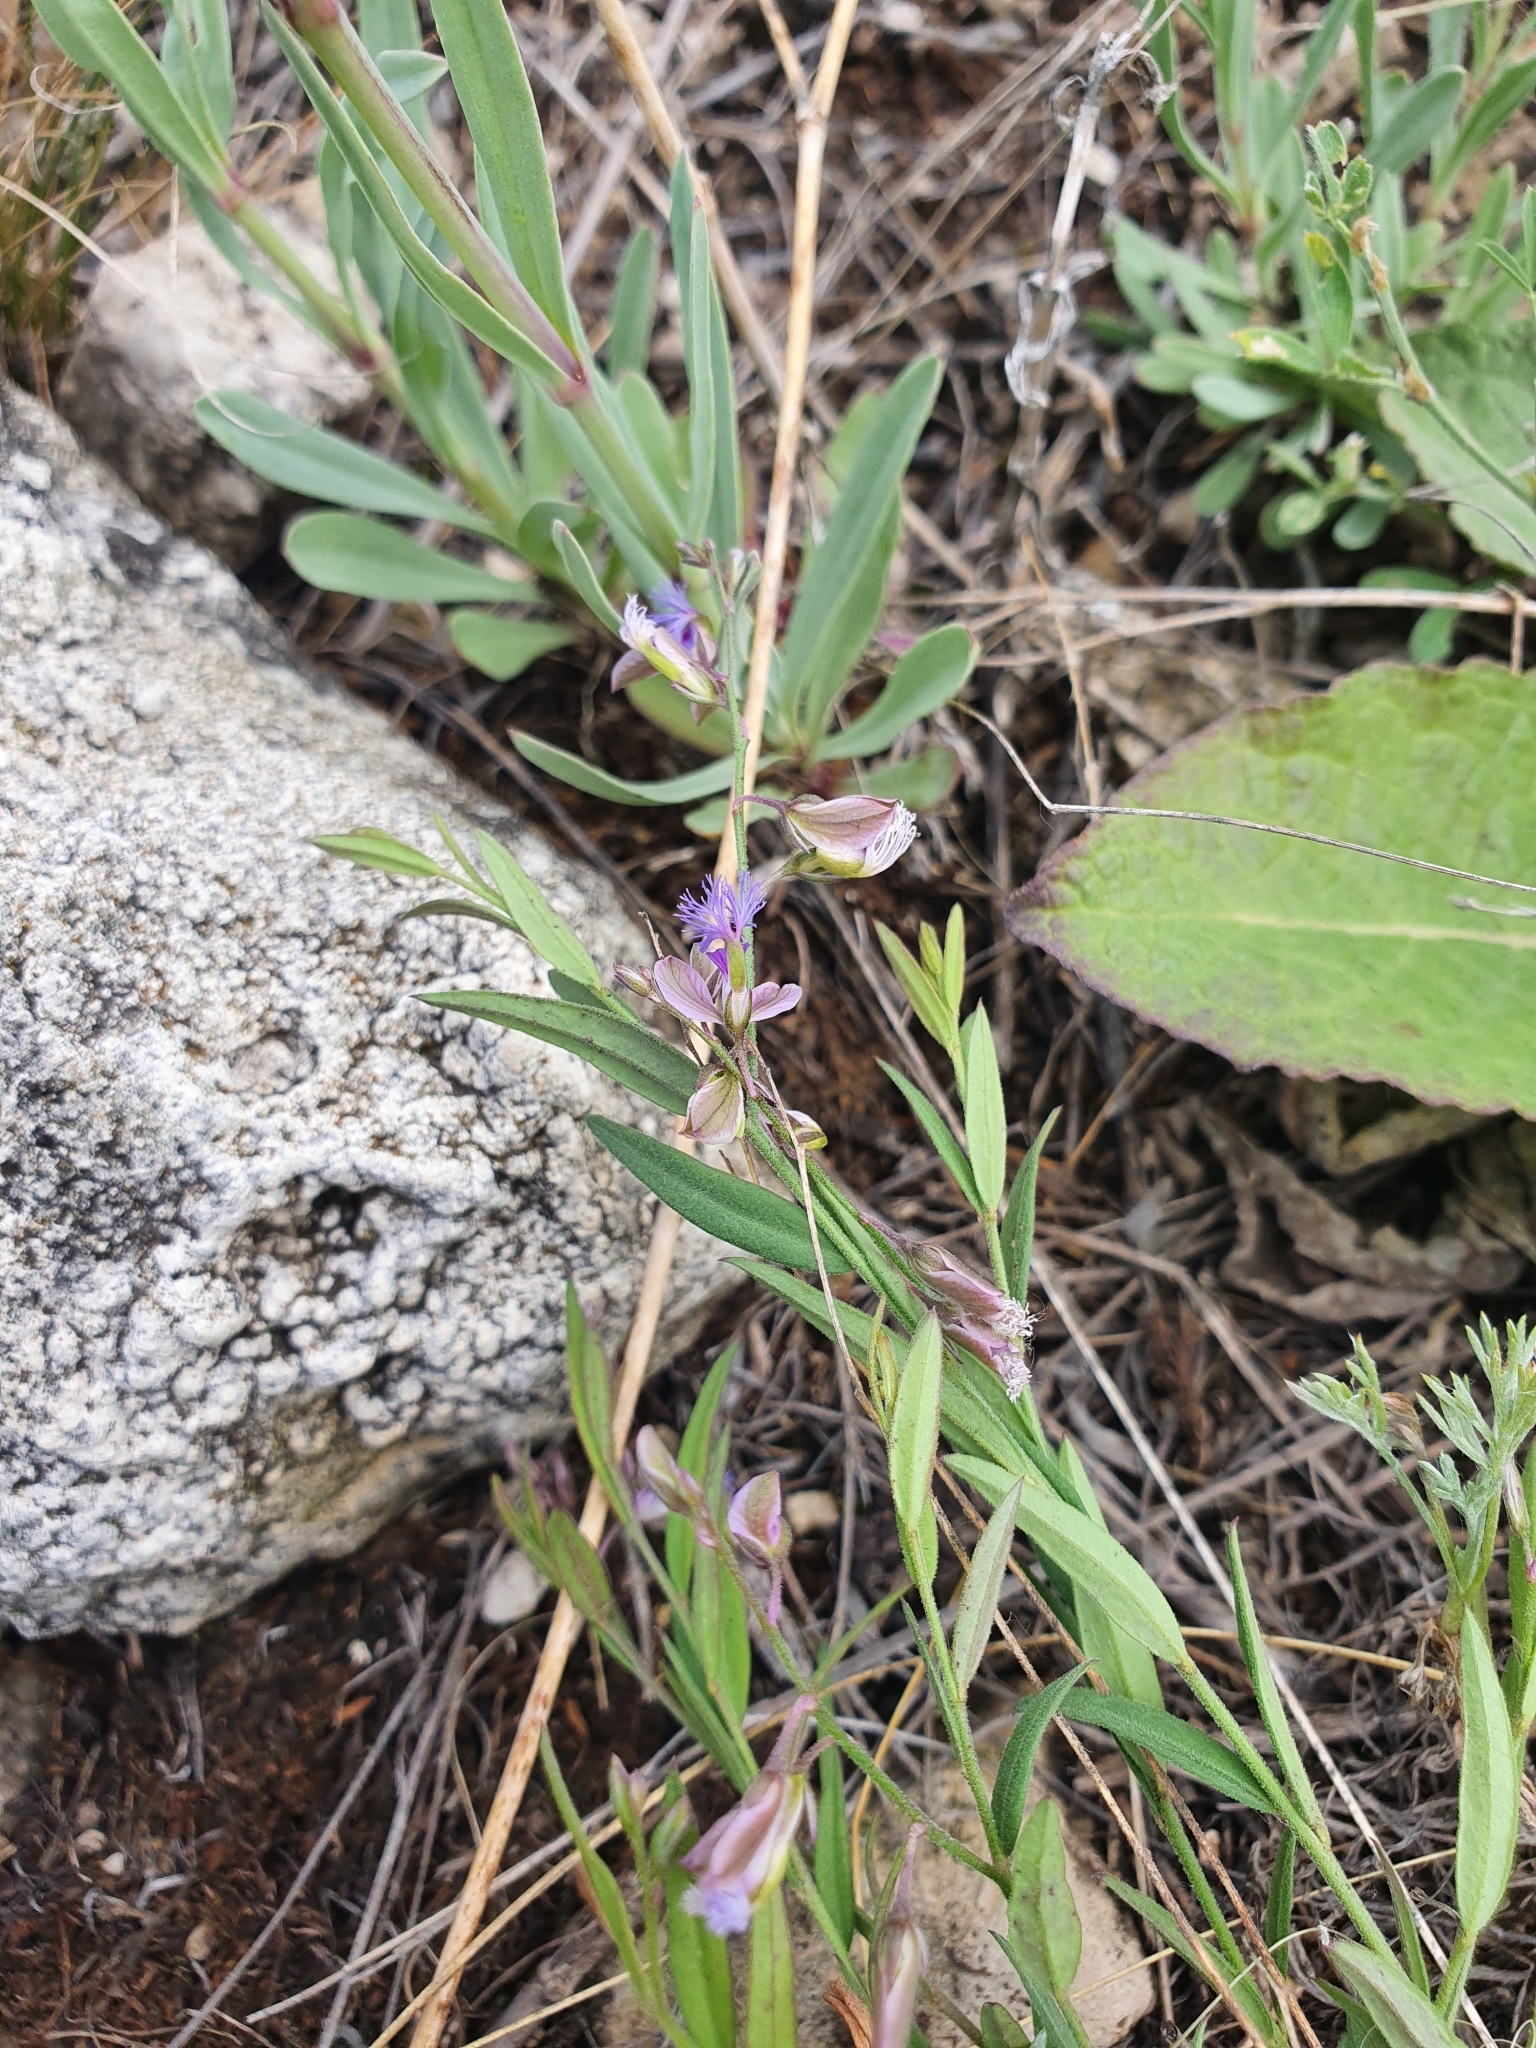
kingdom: Plantae
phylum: Tracheophyta
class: Magnoliopsida
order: Fabales
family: Polygalaceae
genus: Polygala
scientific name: Polygala sibirica
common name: Siberian polygala
